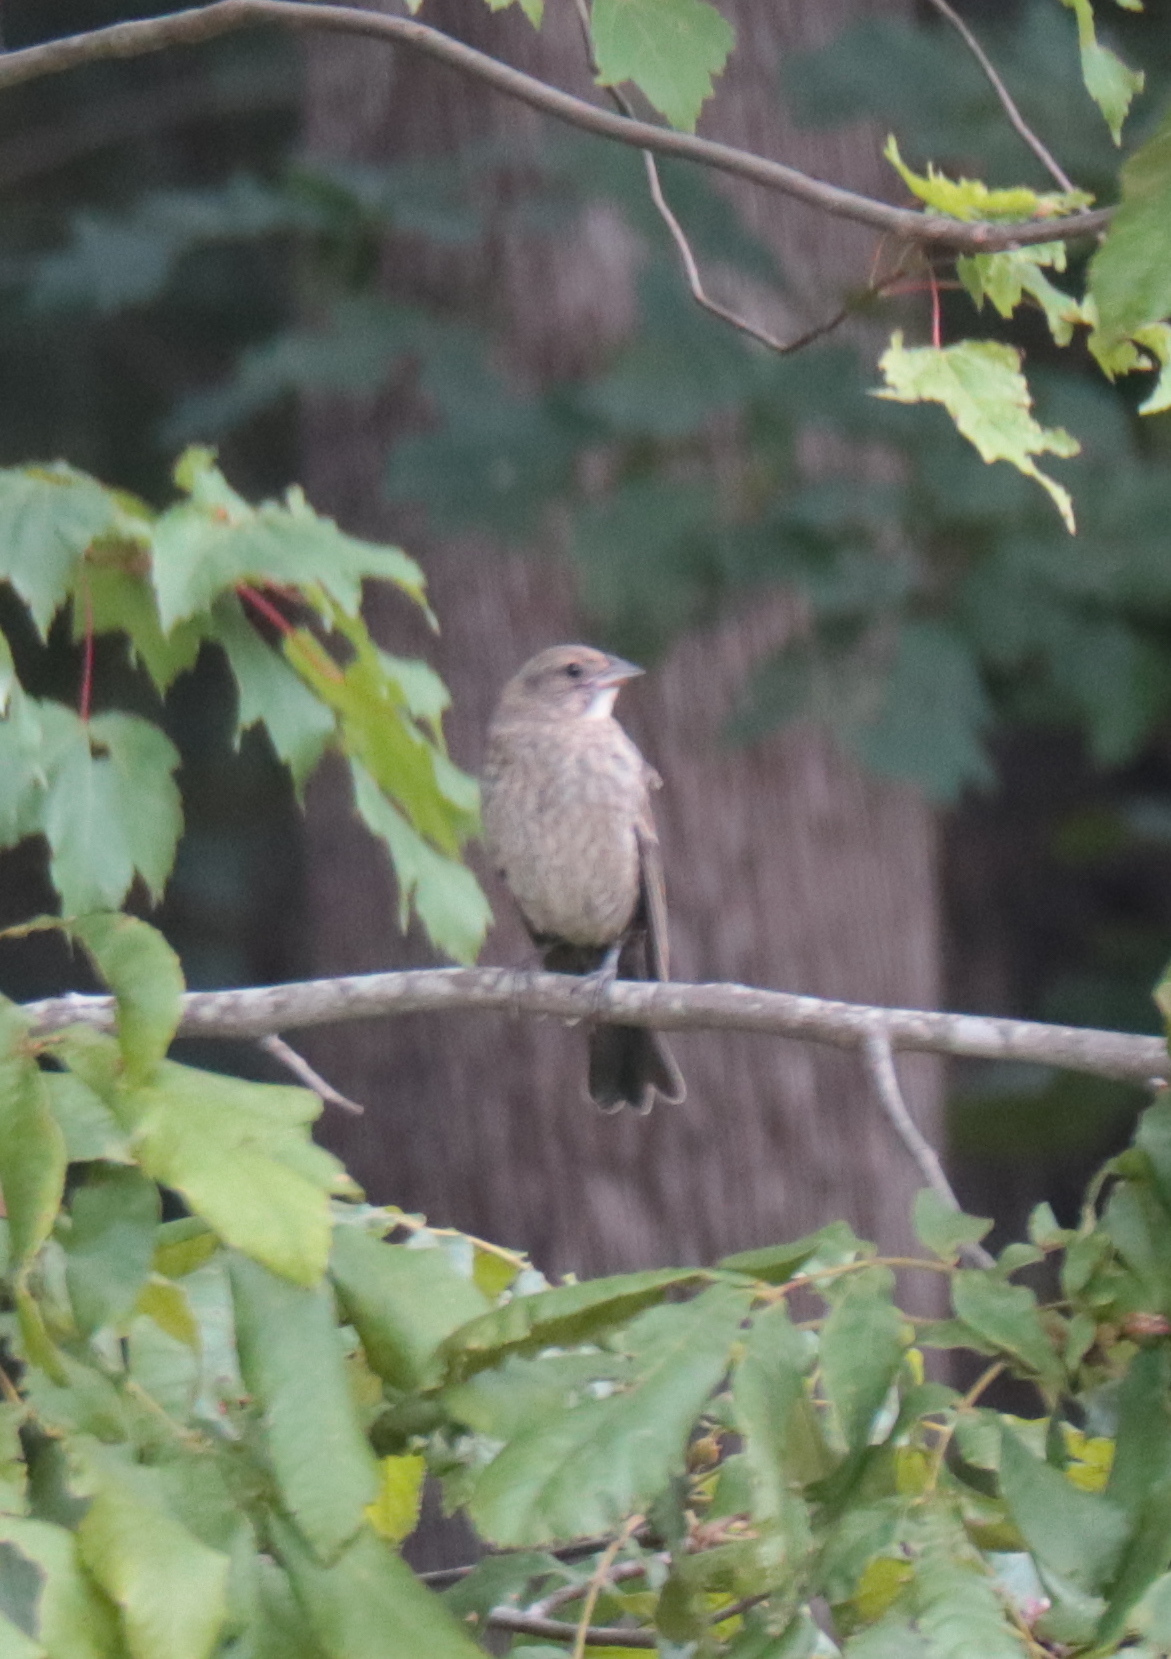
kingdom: Animalia
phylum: Chordata
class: Aves
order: Passeriformes
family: Icteridae
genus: Molothrus
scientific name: Molothrus ater
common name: Brown-headed cowbird
